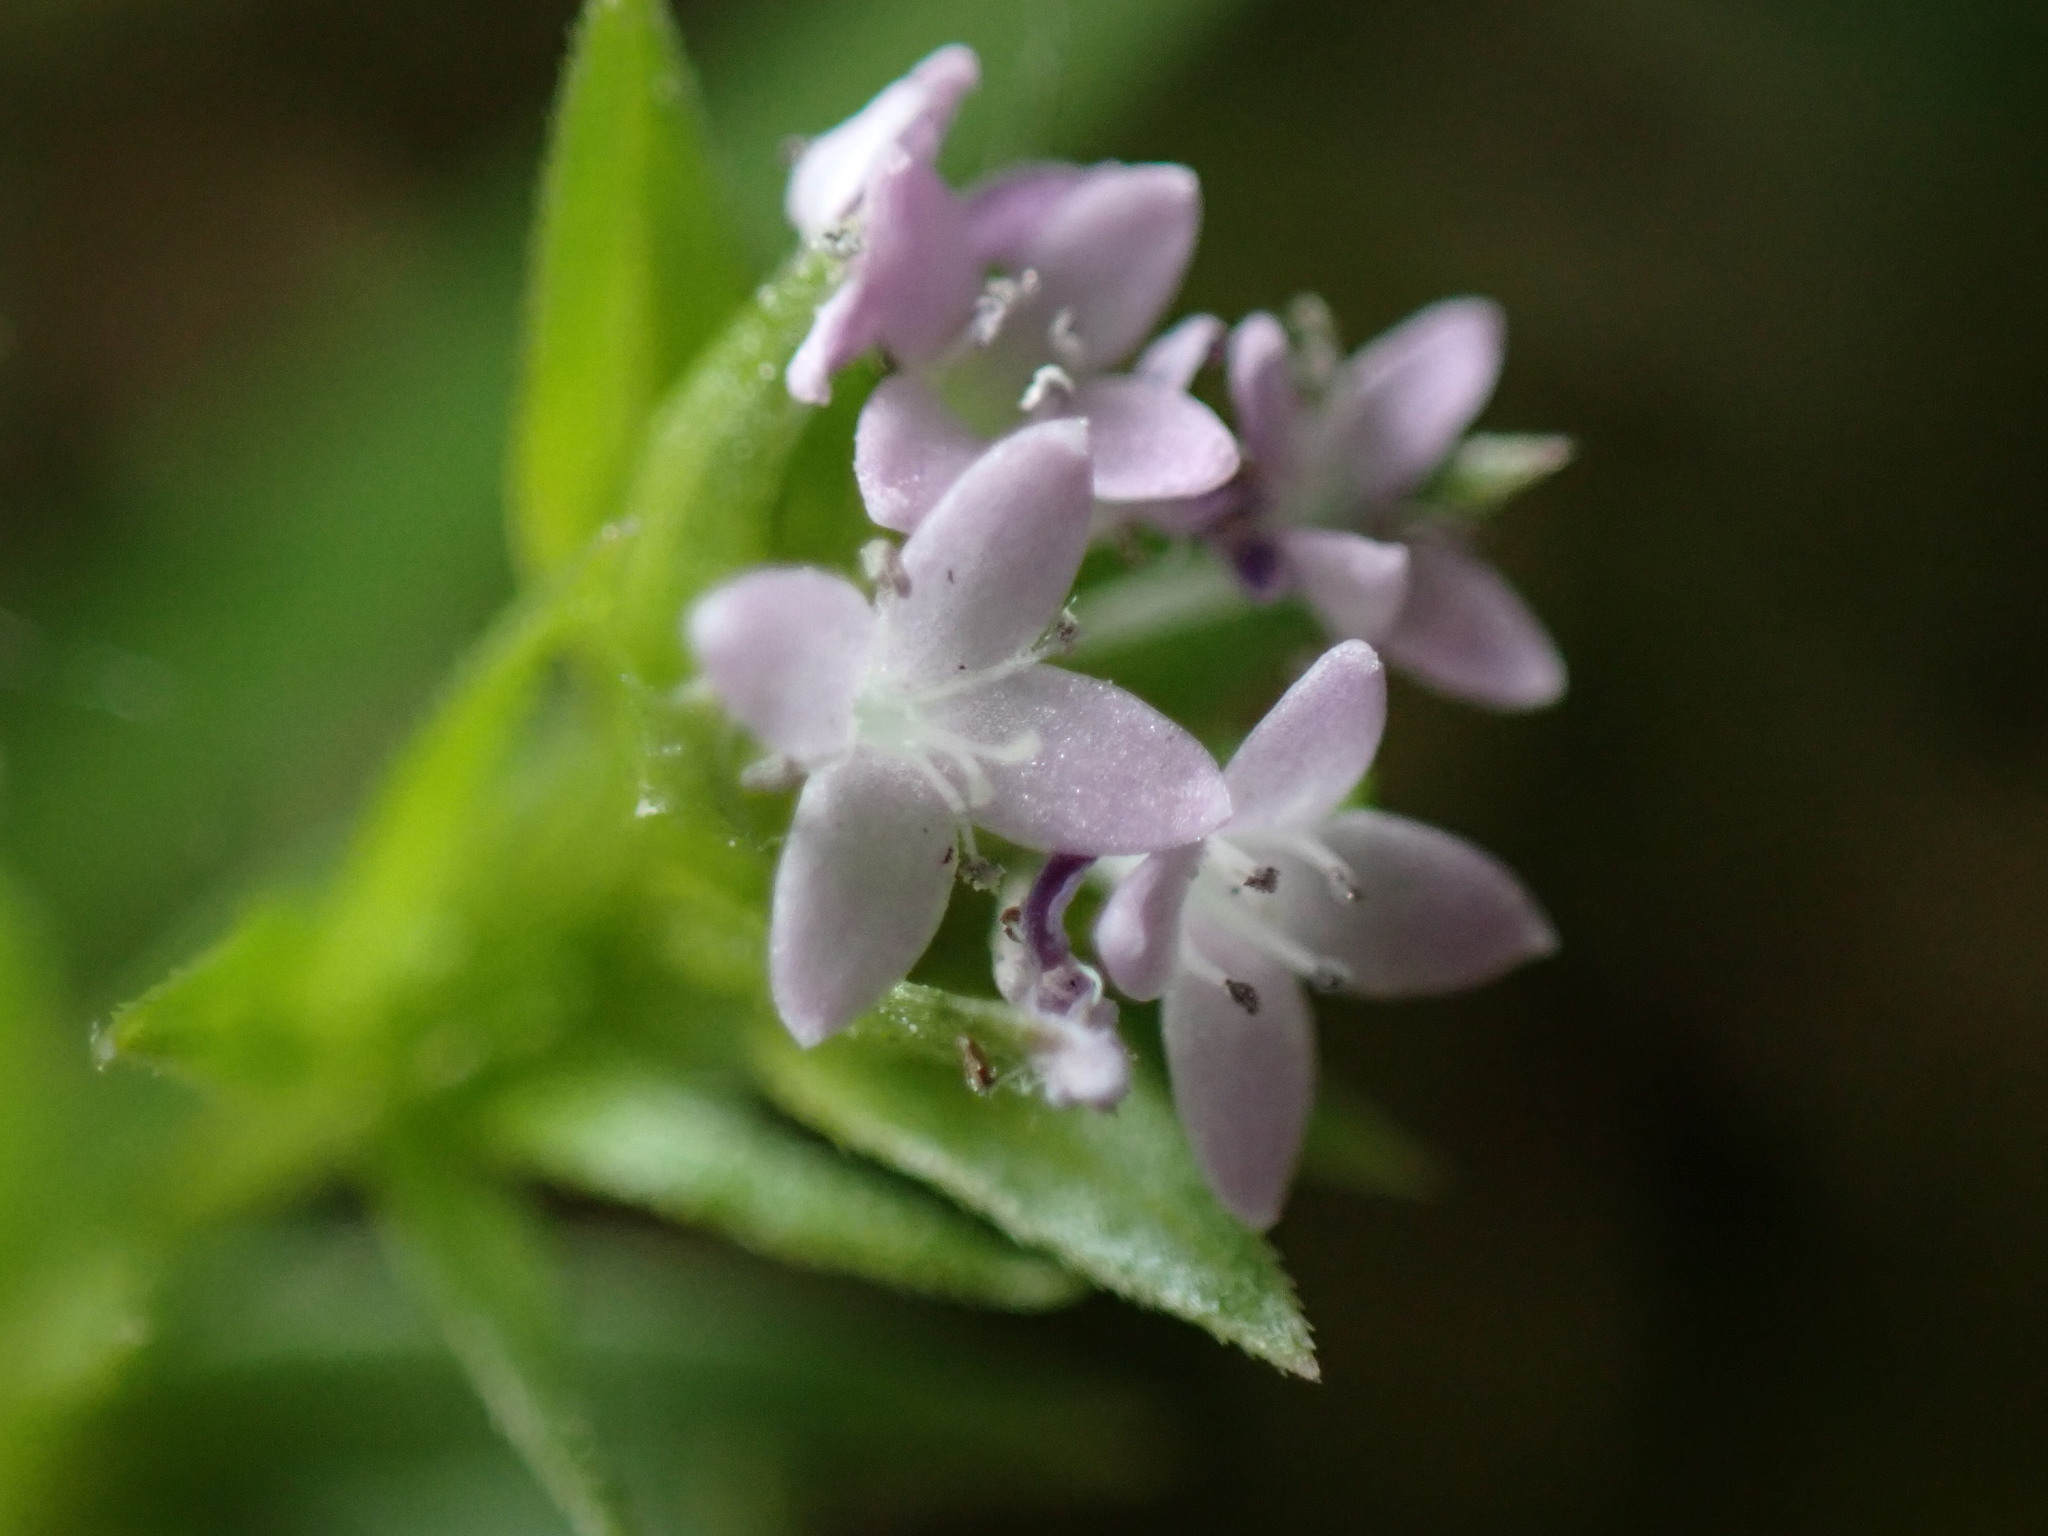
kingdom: Plantae
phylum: Tracheophyta
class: Magnoliopsida
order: Gentianales
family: Rubiaceae
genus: Sherardia
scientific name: Sherardia arvensis
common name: Field madder
